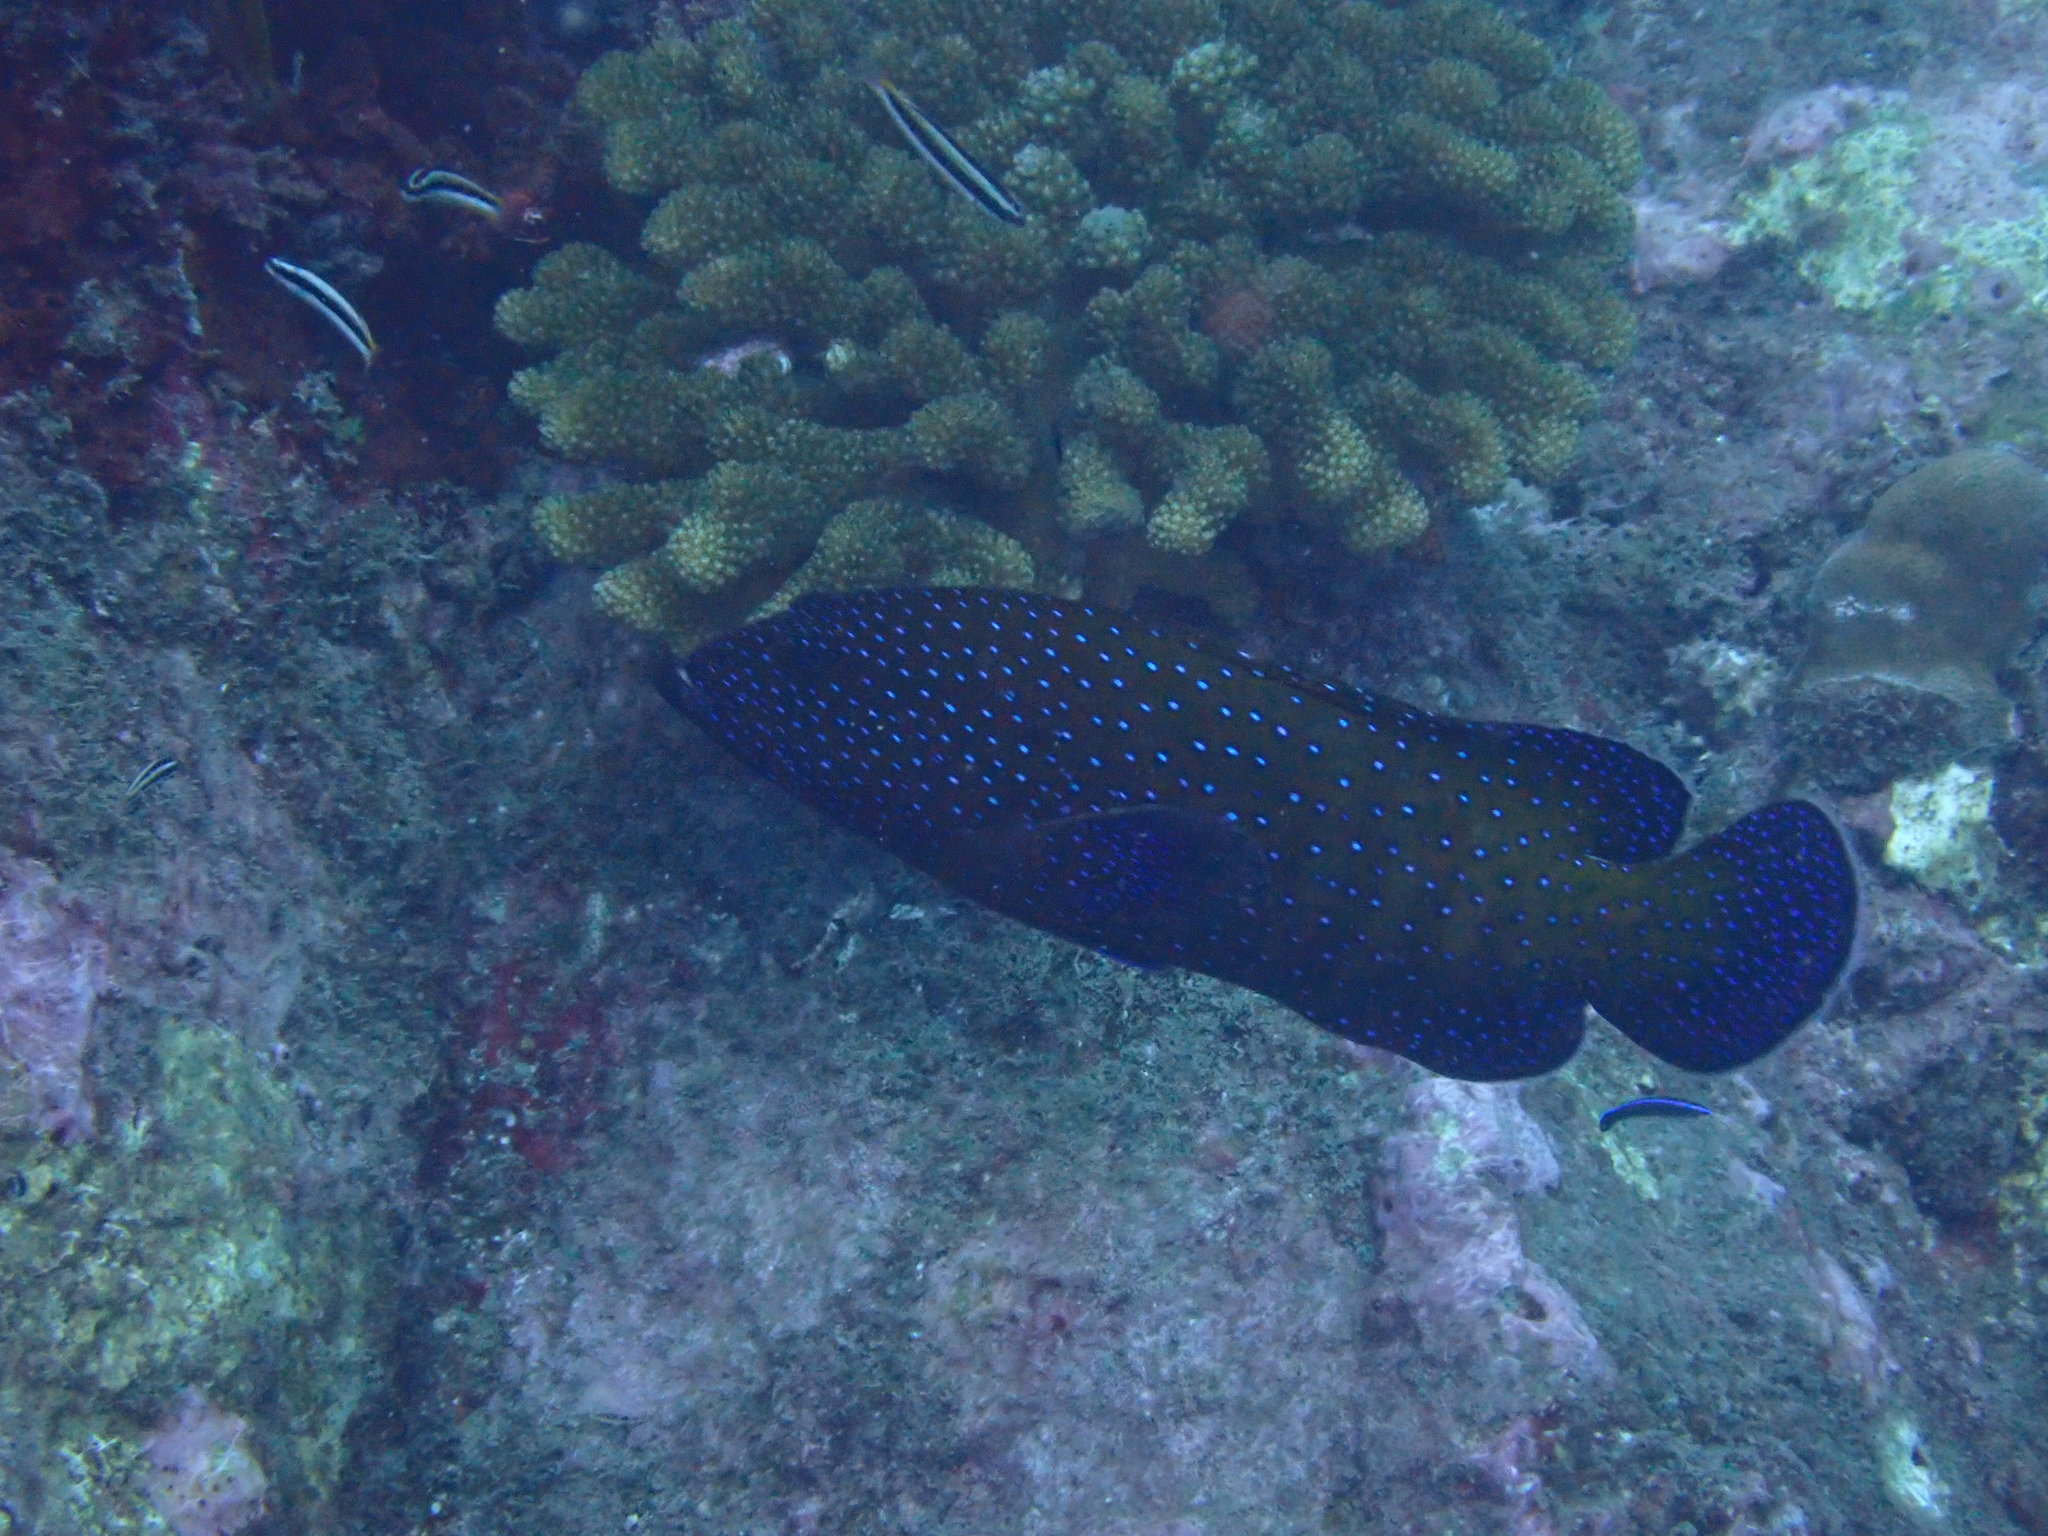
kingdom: Animalia
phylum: Chordata
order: Perciformes
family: Serranidae
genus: Cephalopholis
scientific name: Cephalopholis argus
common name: Peacock grouper
